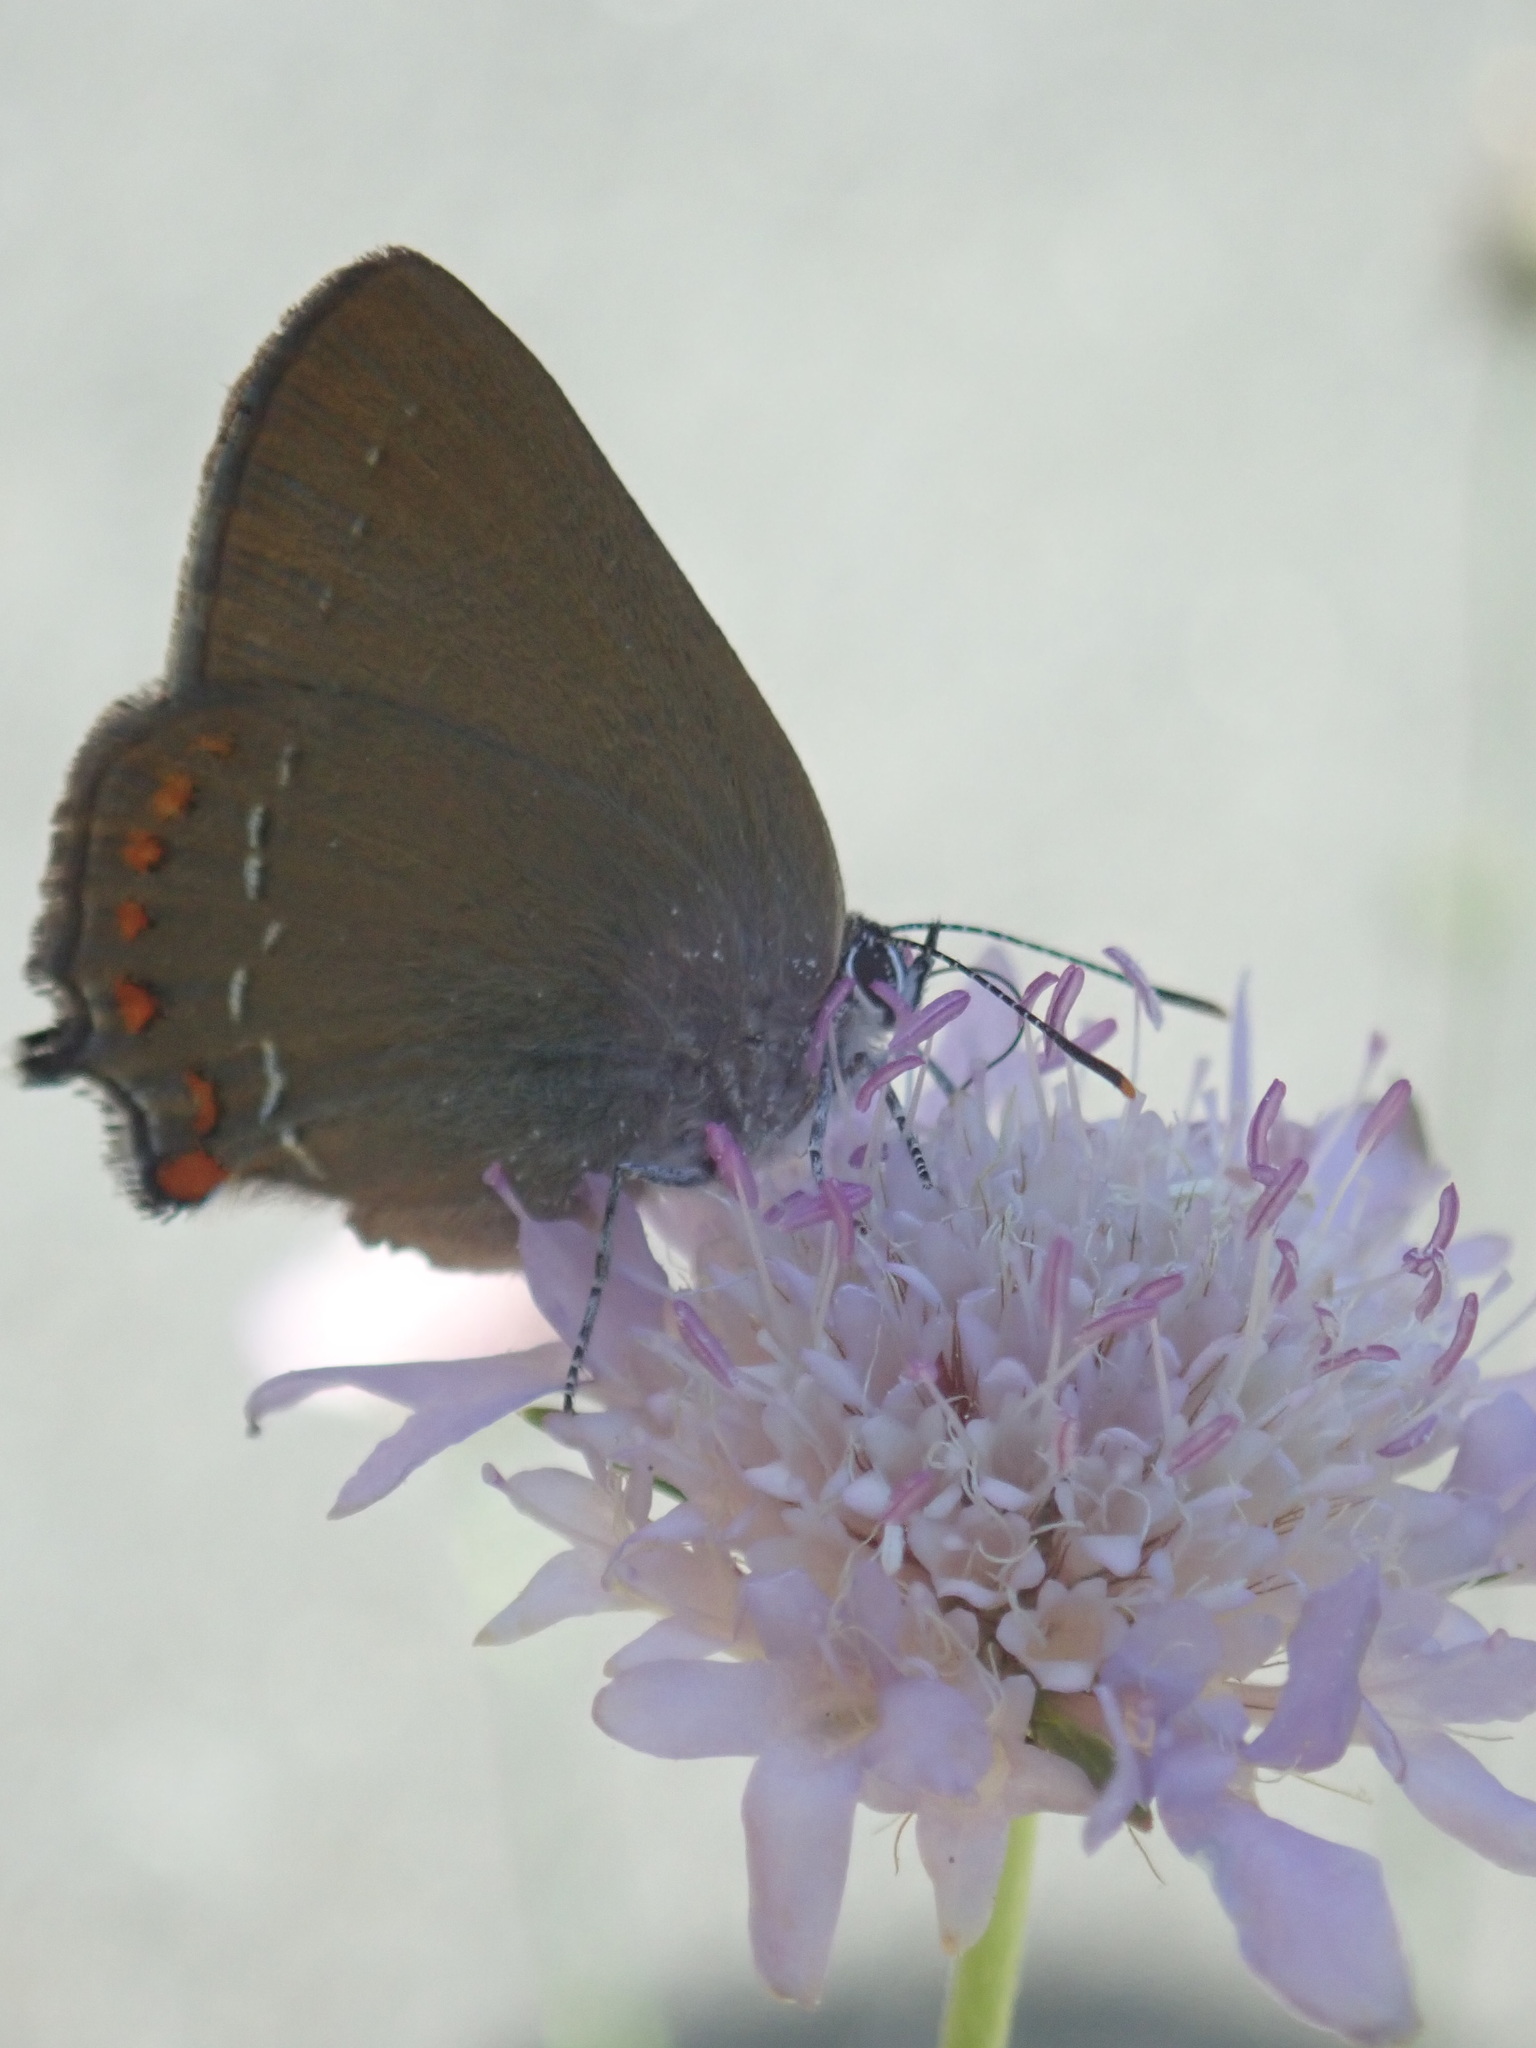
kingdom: Animalia
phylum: Arthropoda
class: Insecta
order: Lepidoptera
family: Lycaenidae
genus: Fixsenia
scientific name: Fixsenia esculi
